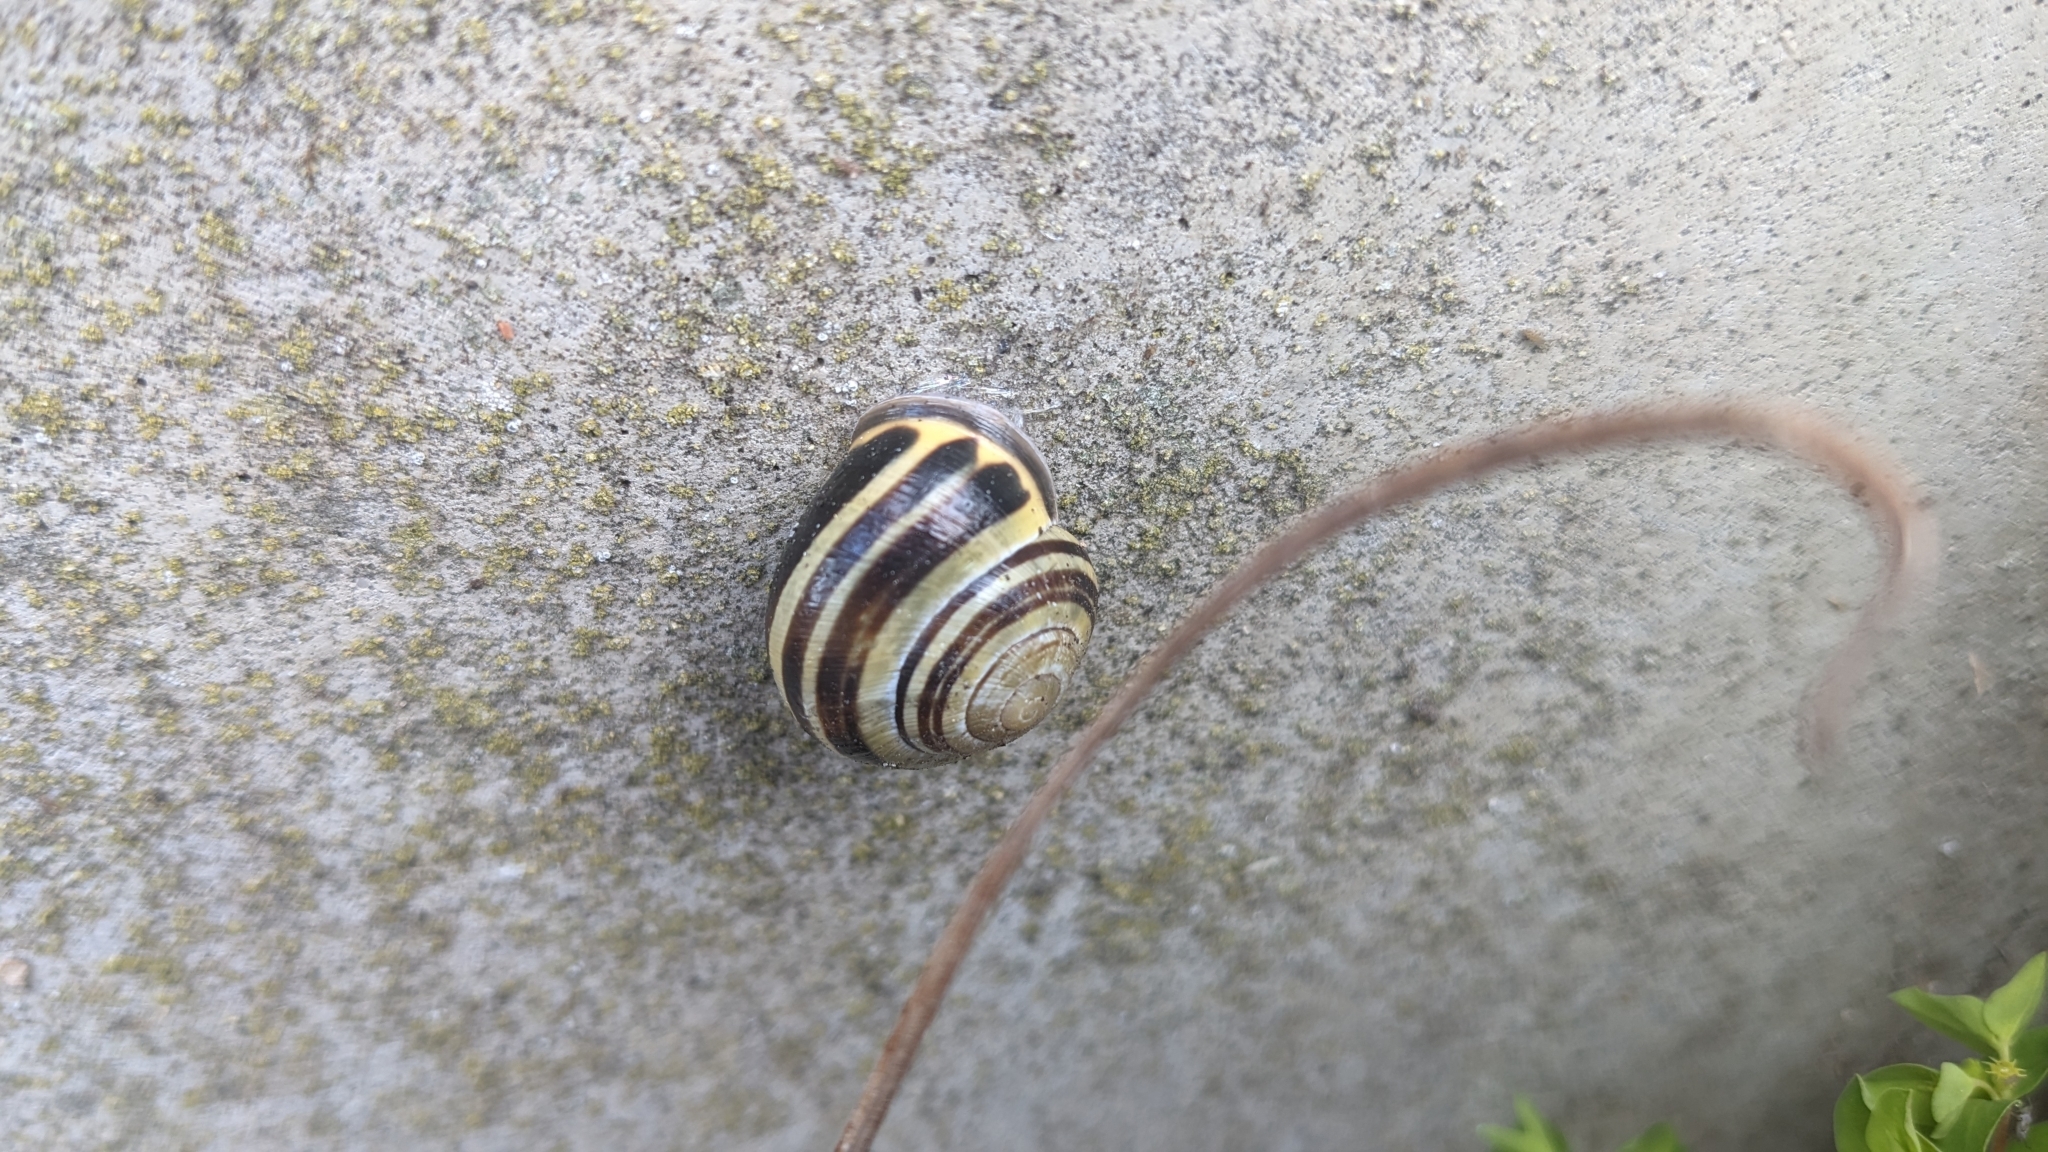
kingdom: Animalia
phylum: Mollusca
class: Gastropoda
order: Stylommatophora
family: Helicidae
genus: Cepaea
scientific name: Cepaea nemoralis
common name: Grovesnail
